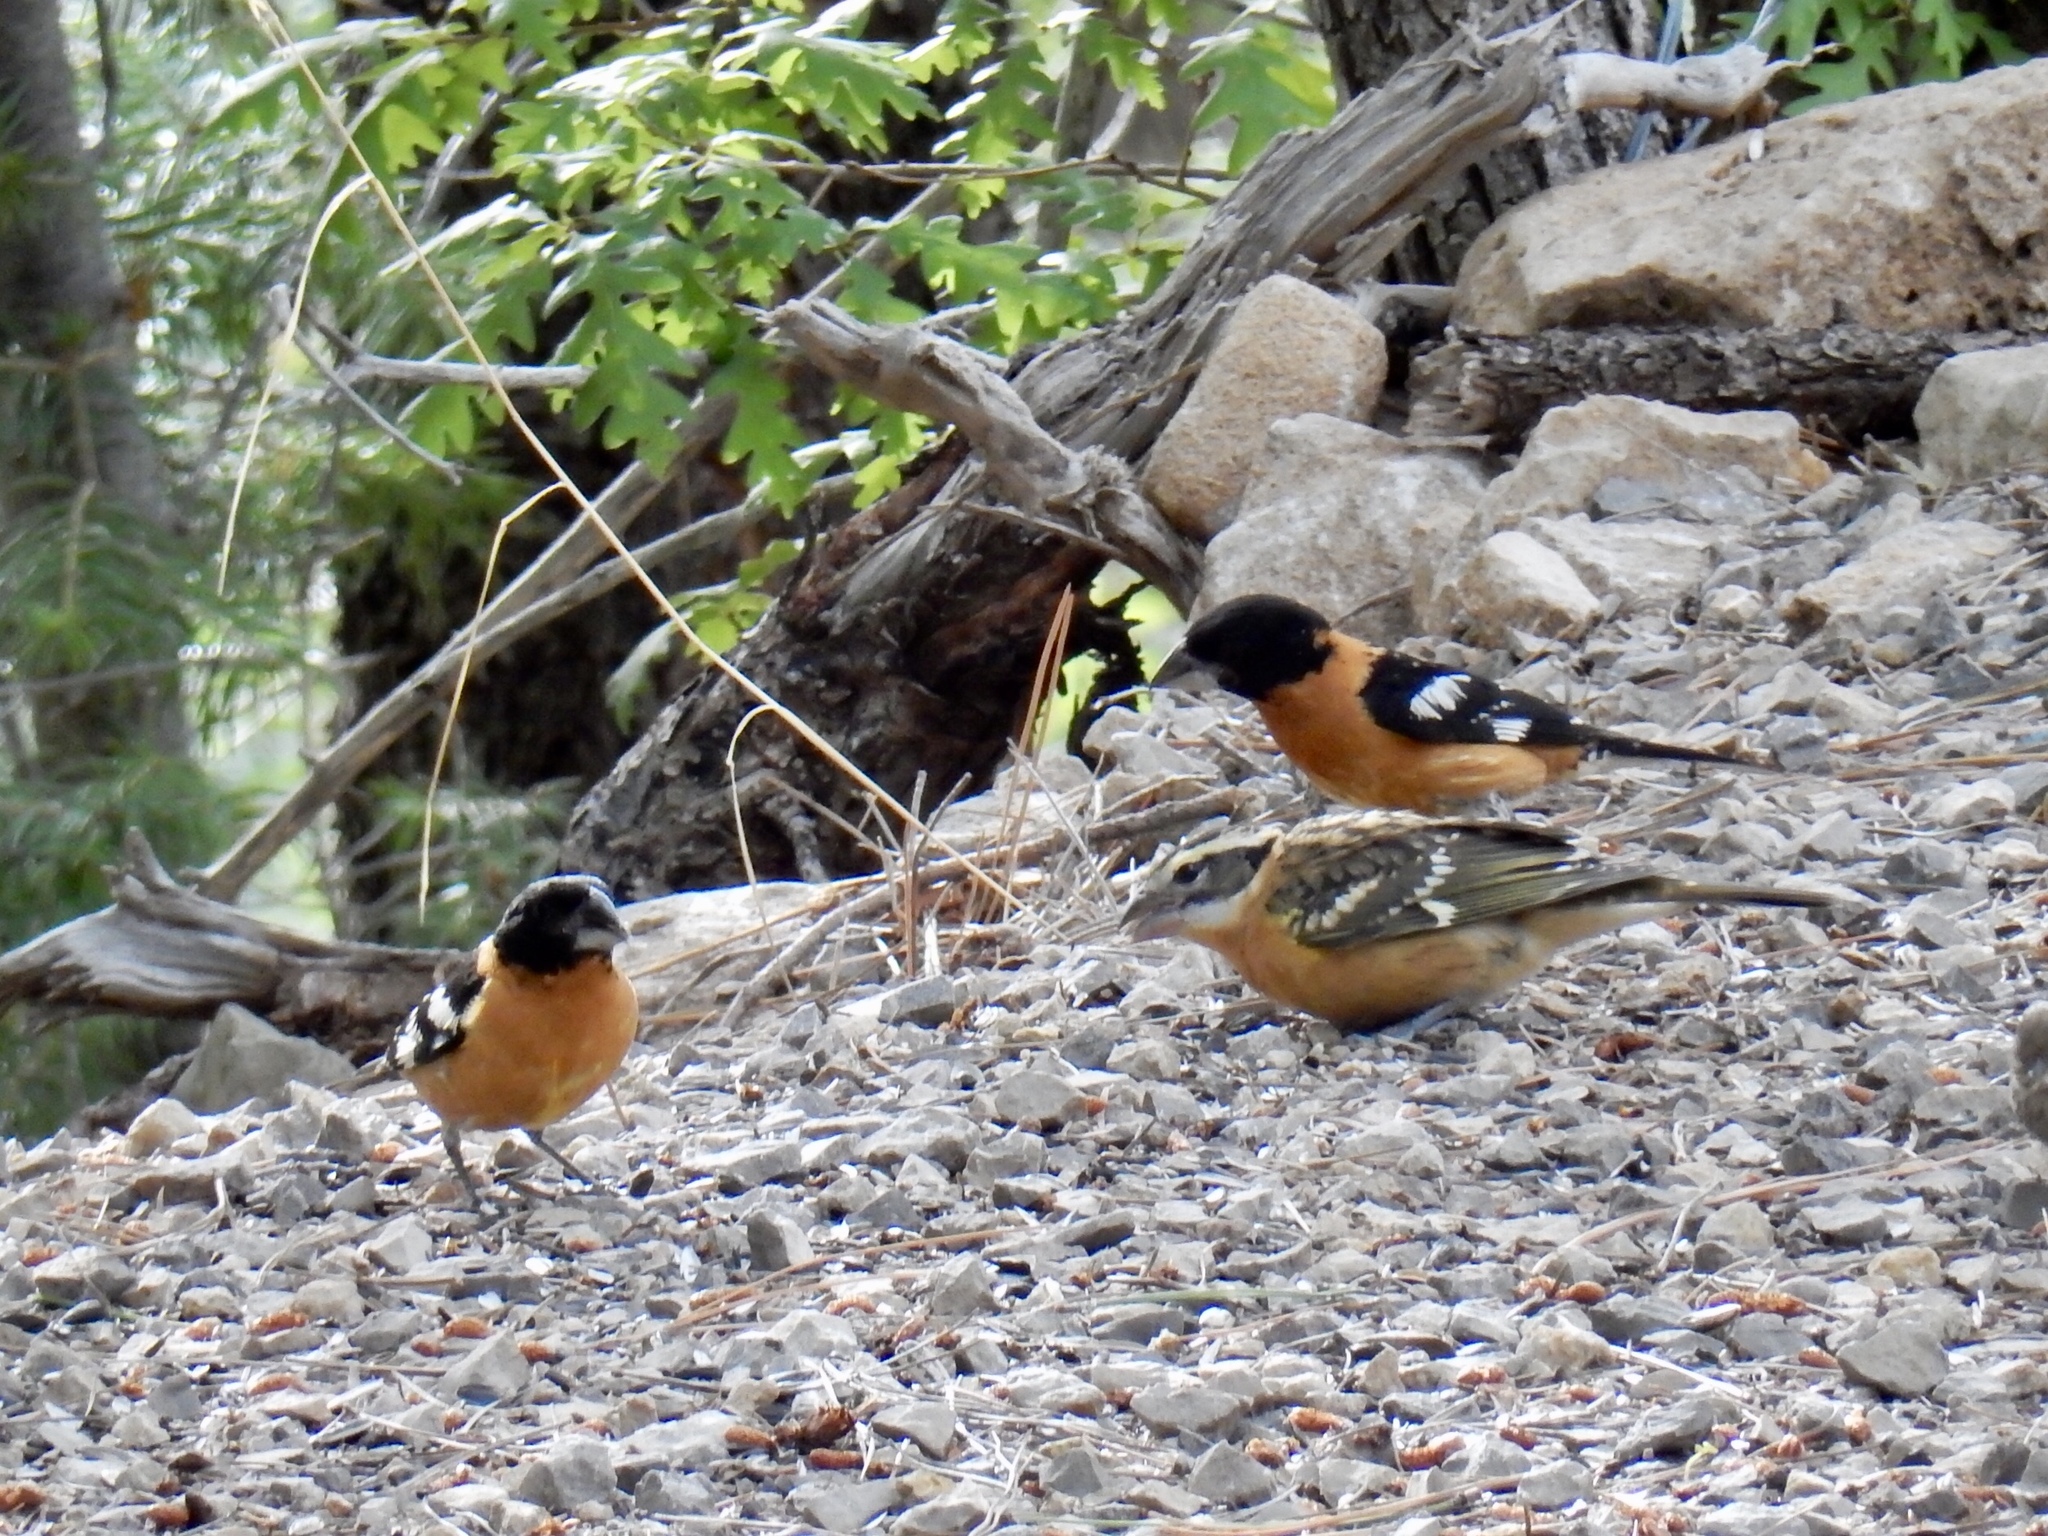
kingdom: Animalia
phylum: Chordata
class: Aves
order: Passeriformes
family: Cardinalidae
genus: Pheucticus
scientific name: Pheucticus melanocephalus
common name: Black-headed grosbeak
